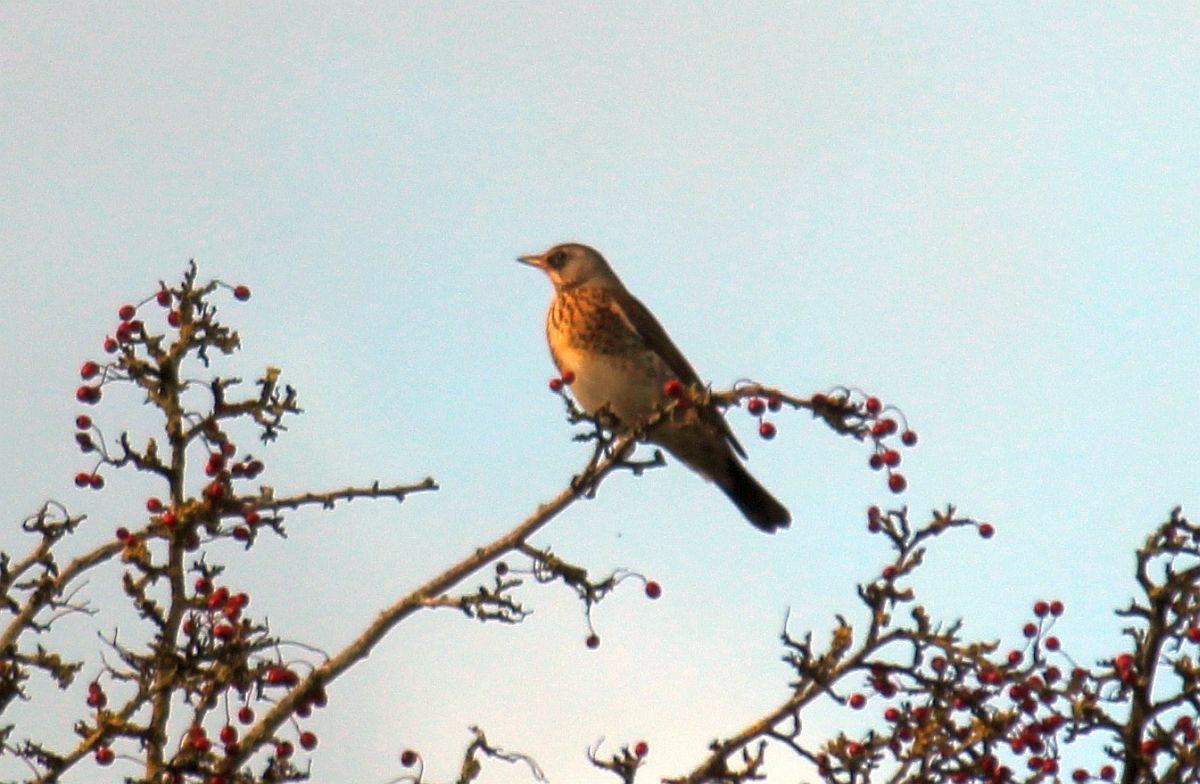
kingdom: Animalia
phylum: Chordata
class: Aves
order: Passeriformes
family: Turdidae
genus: Turdus
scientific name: Turdus pilaris
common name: Fieldfare
